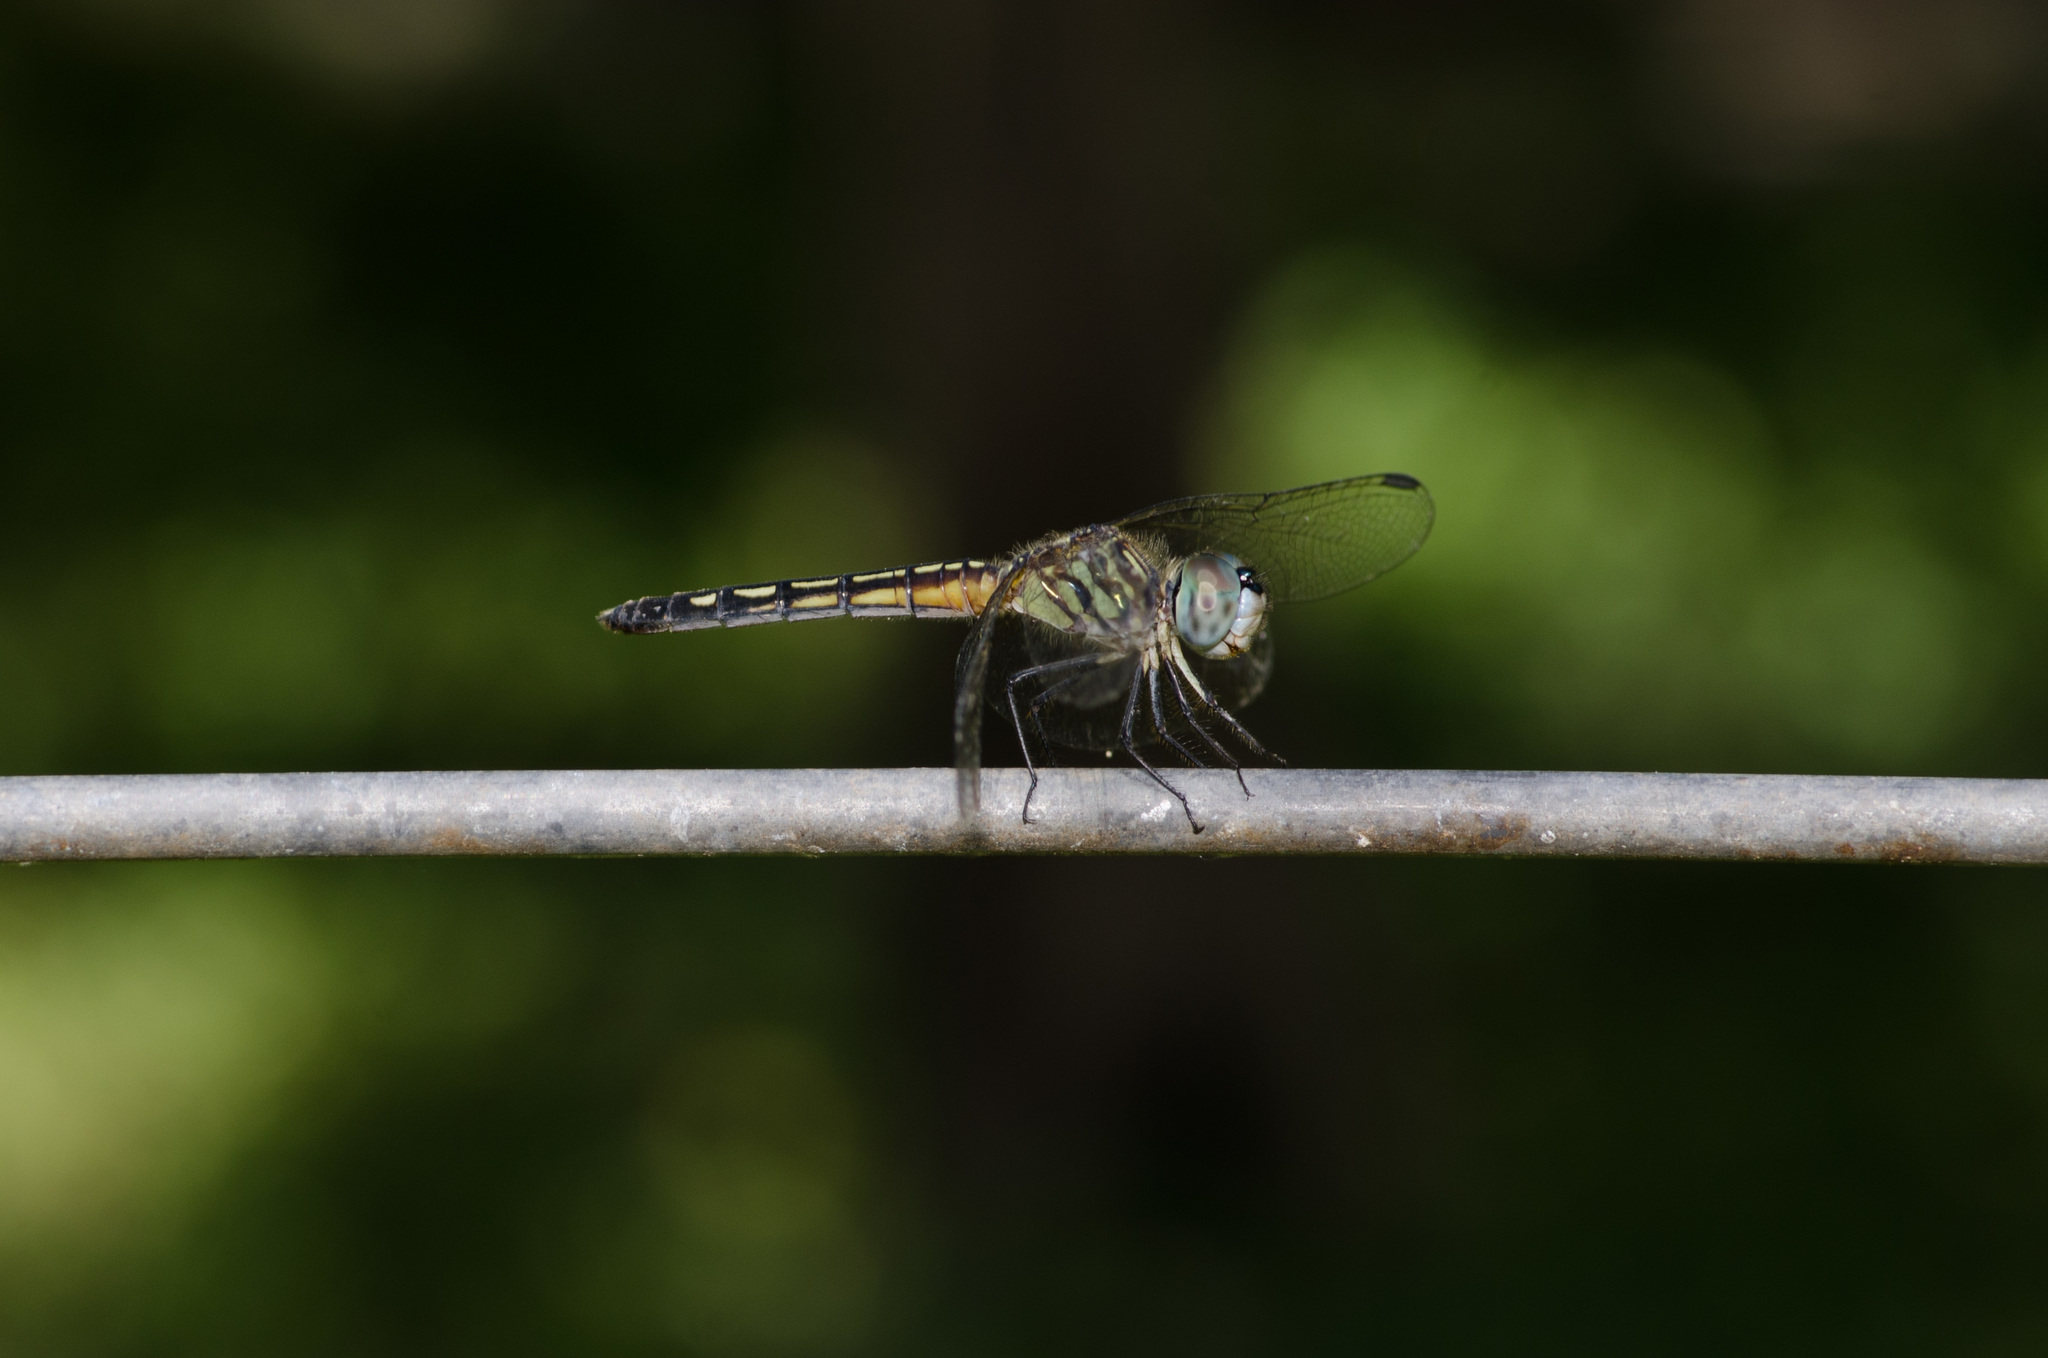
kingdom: Animalia
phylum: Arthropoda
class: Insecta
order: Odonata
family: Libellulidae
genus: Pachydiplax
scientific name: Pachydiplax longipennis
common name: Blue dasher
